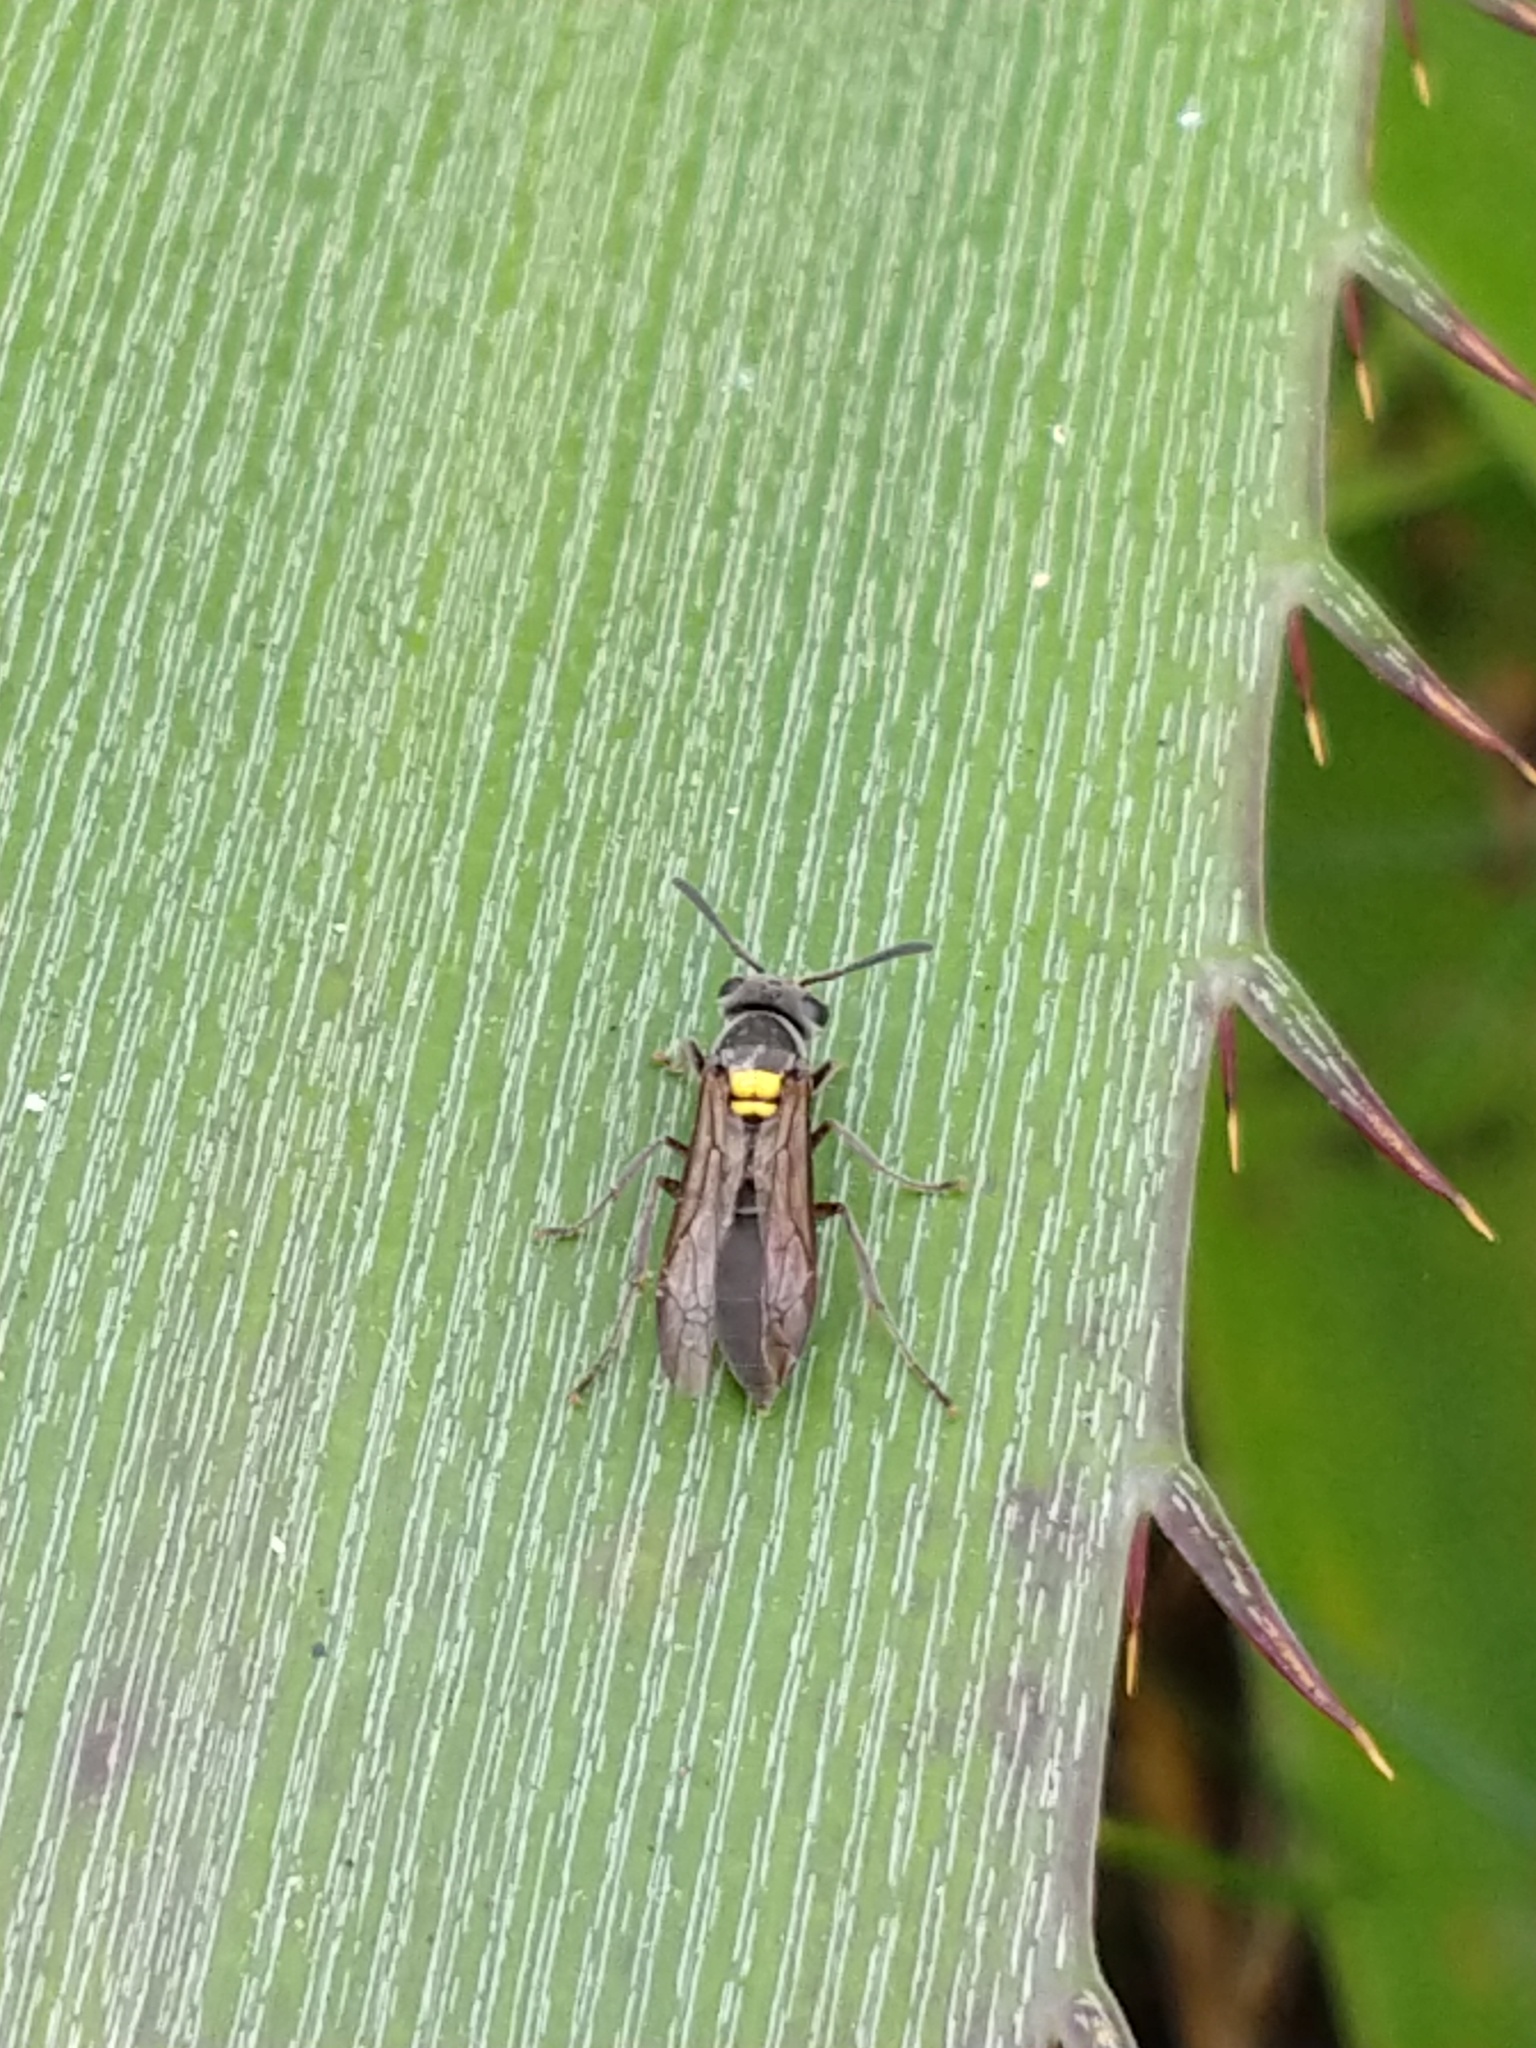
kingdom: Animalia
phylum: Arthropoda
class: Insecta
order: Hymenoptera
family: Eumenidae
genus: Polybia
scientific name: Polybia scutellaris
